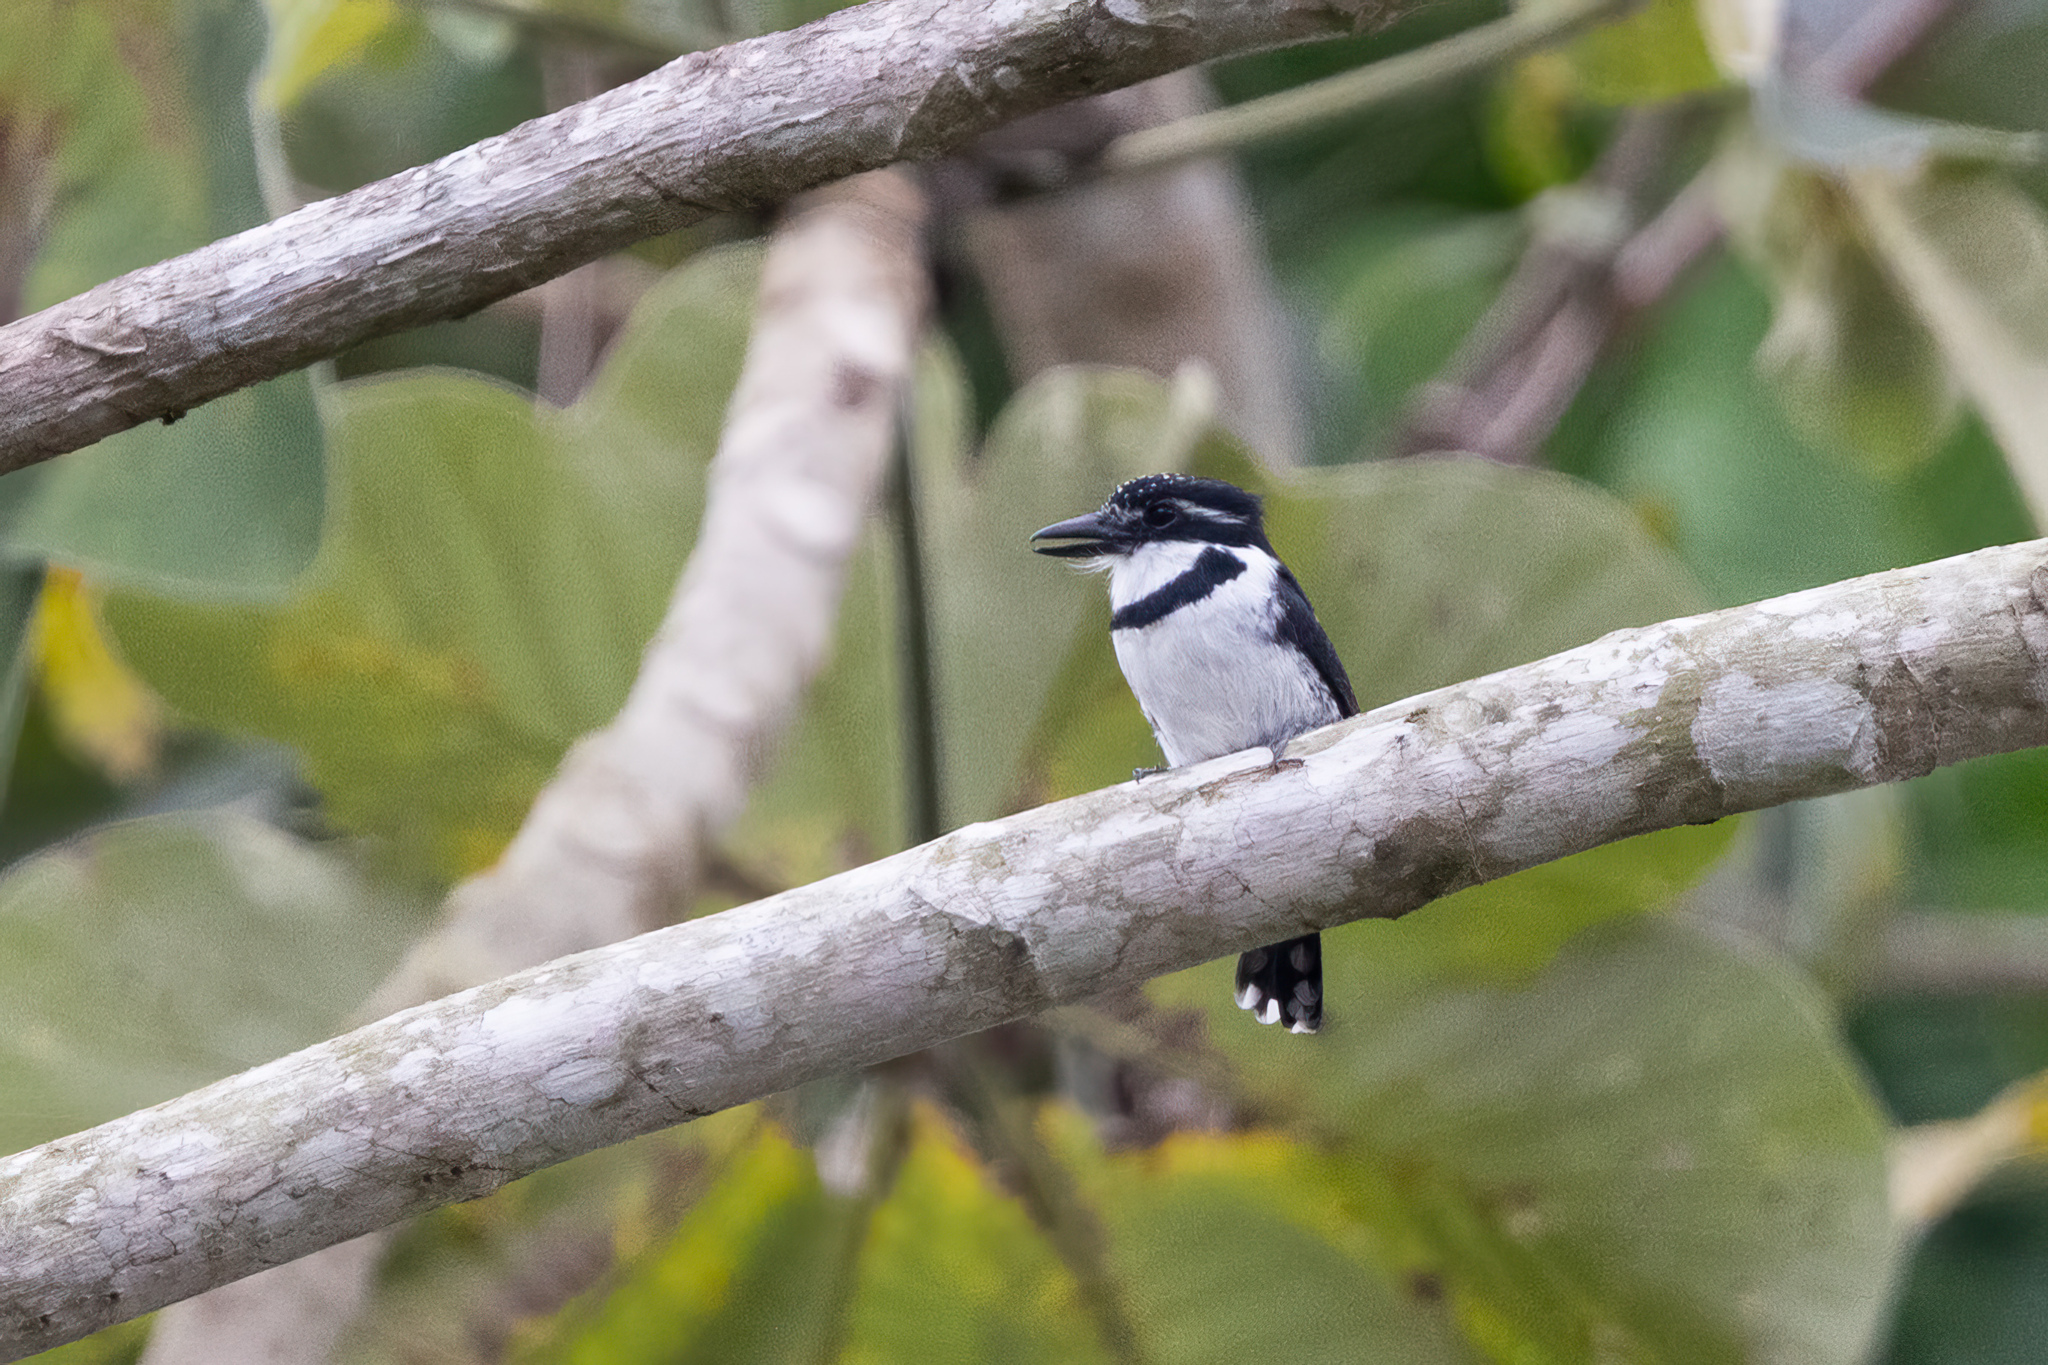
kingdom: Animalia
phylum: Chordata
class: Aves
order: Piciformes
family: Bucconidae
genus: Notharchus
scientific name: Notharchus tectus
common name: Pied puffbird
